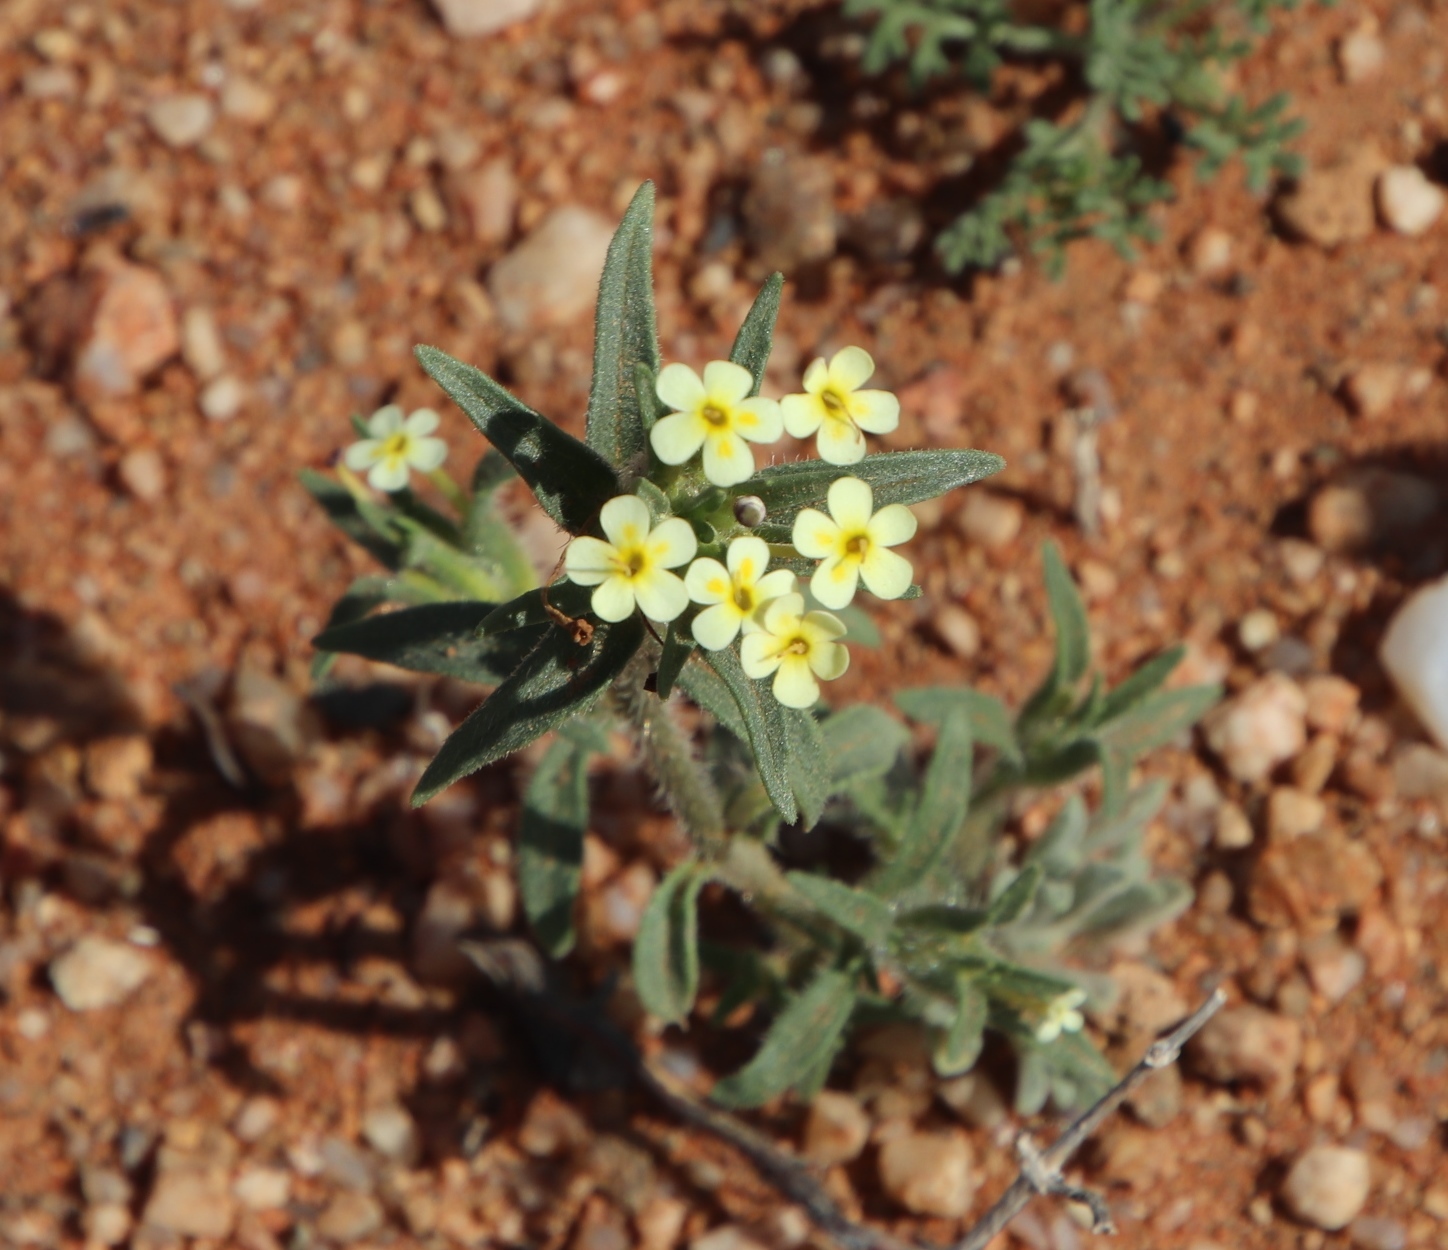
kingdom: Plantae
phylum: Tracheophyta
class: Magnoliopsida
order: Lamiales
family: Scrophulariaceae
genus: Zaluzianskya
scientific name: Zaluzianskya benthamiana
